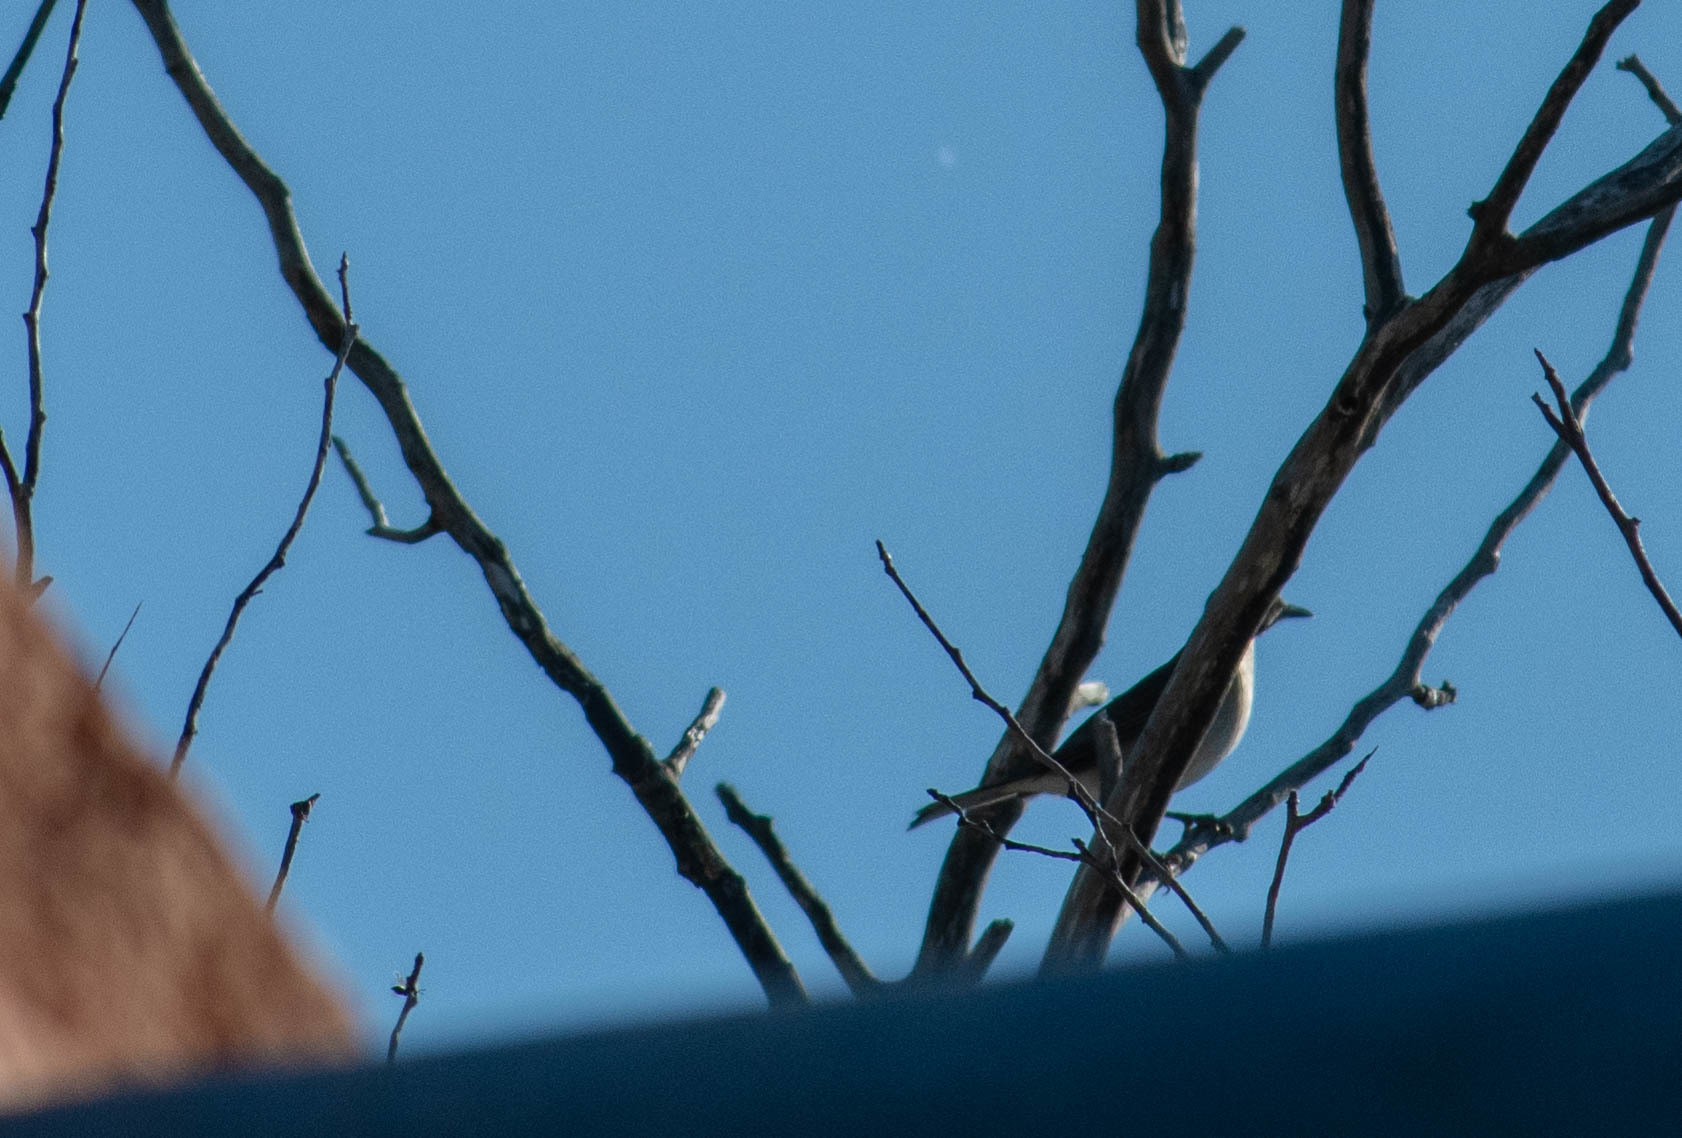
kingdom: Animalia
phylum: Chordata
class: Aves
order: Passeriformes
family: Turdidae
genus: Turdus
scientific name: Turdus amaurochalinus
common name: Creamy-bellied thrush
